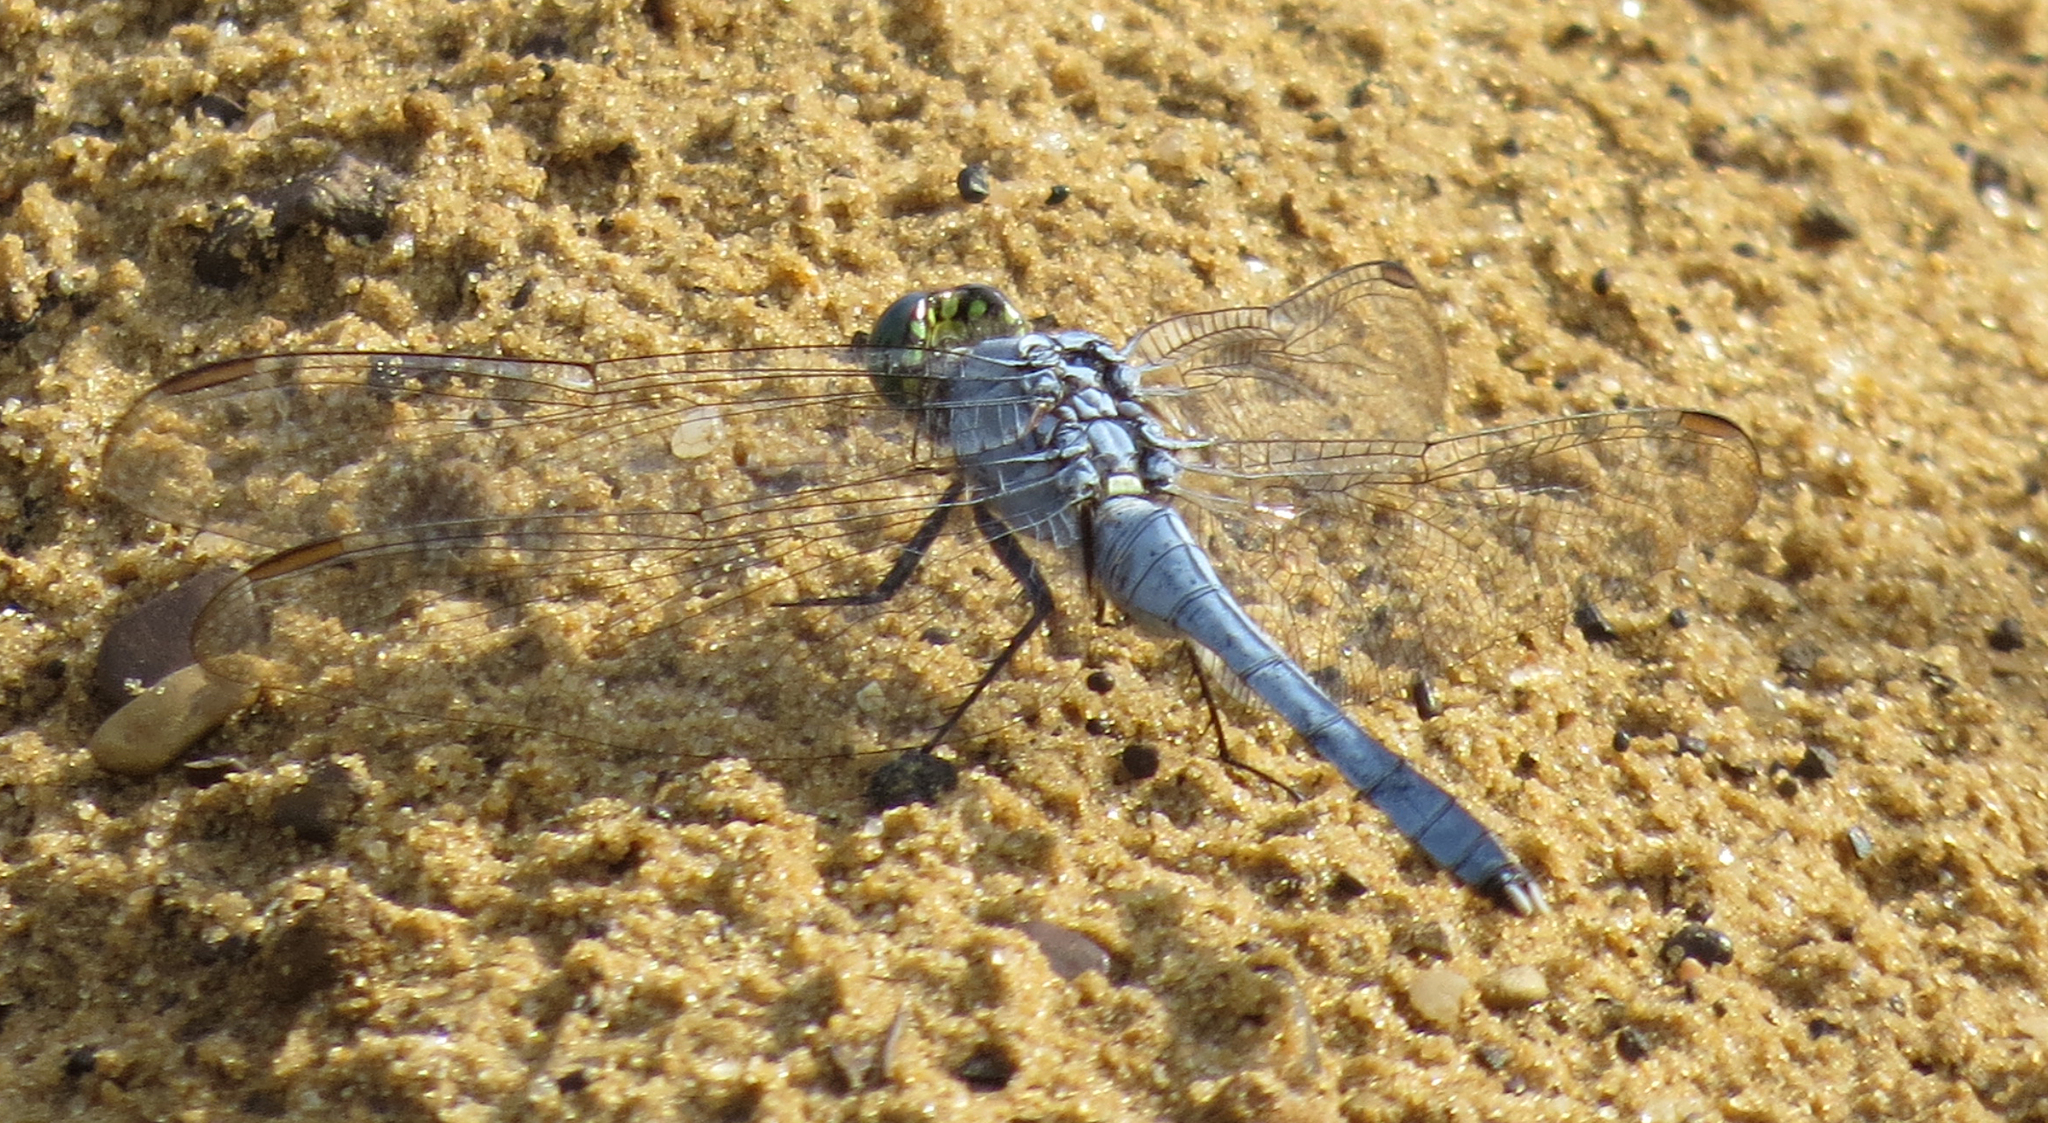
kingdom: Animalia
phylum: Arthropoda
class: Insecta
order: Odonata
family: Libellulidae
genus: Erythemis
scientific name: Erythemis simplicicollis
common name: Eastern pondhawk
